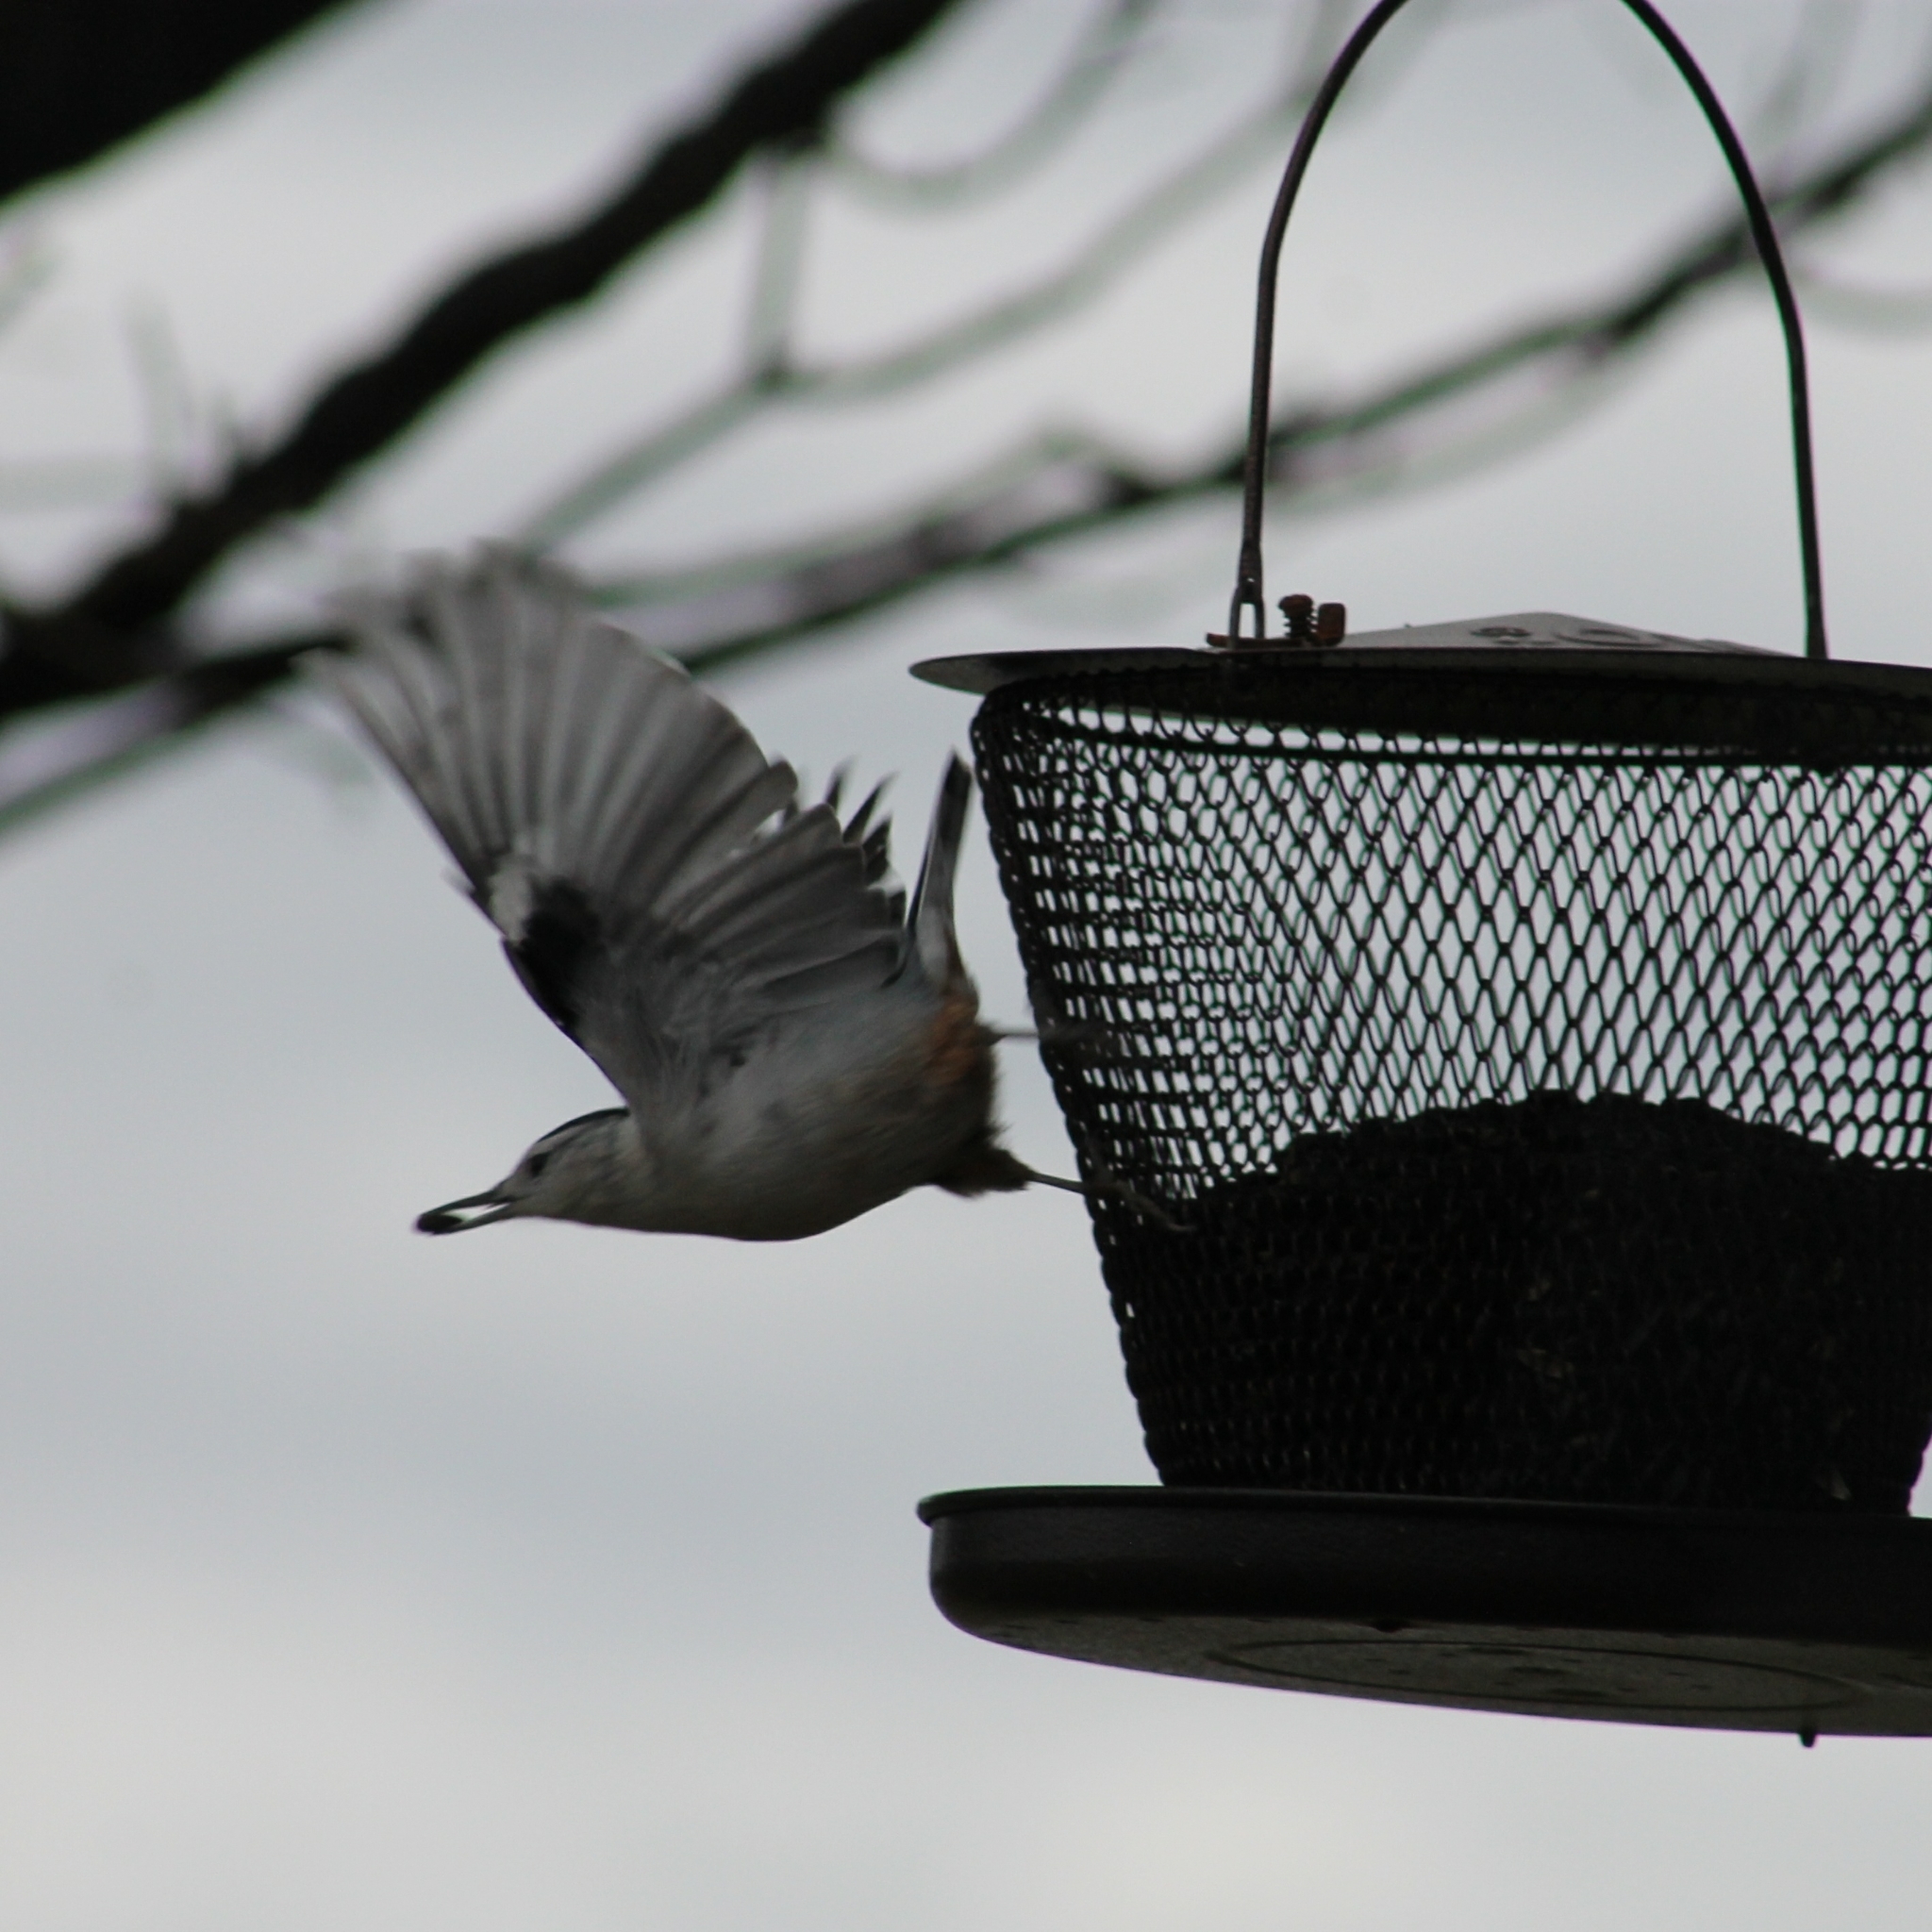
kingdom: Animalia
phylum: Chordata
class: Aves
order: Passeriformes
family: Sittidae
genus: Sitta
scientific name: Sitta carolinensis
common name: White-breasted nuthatch
